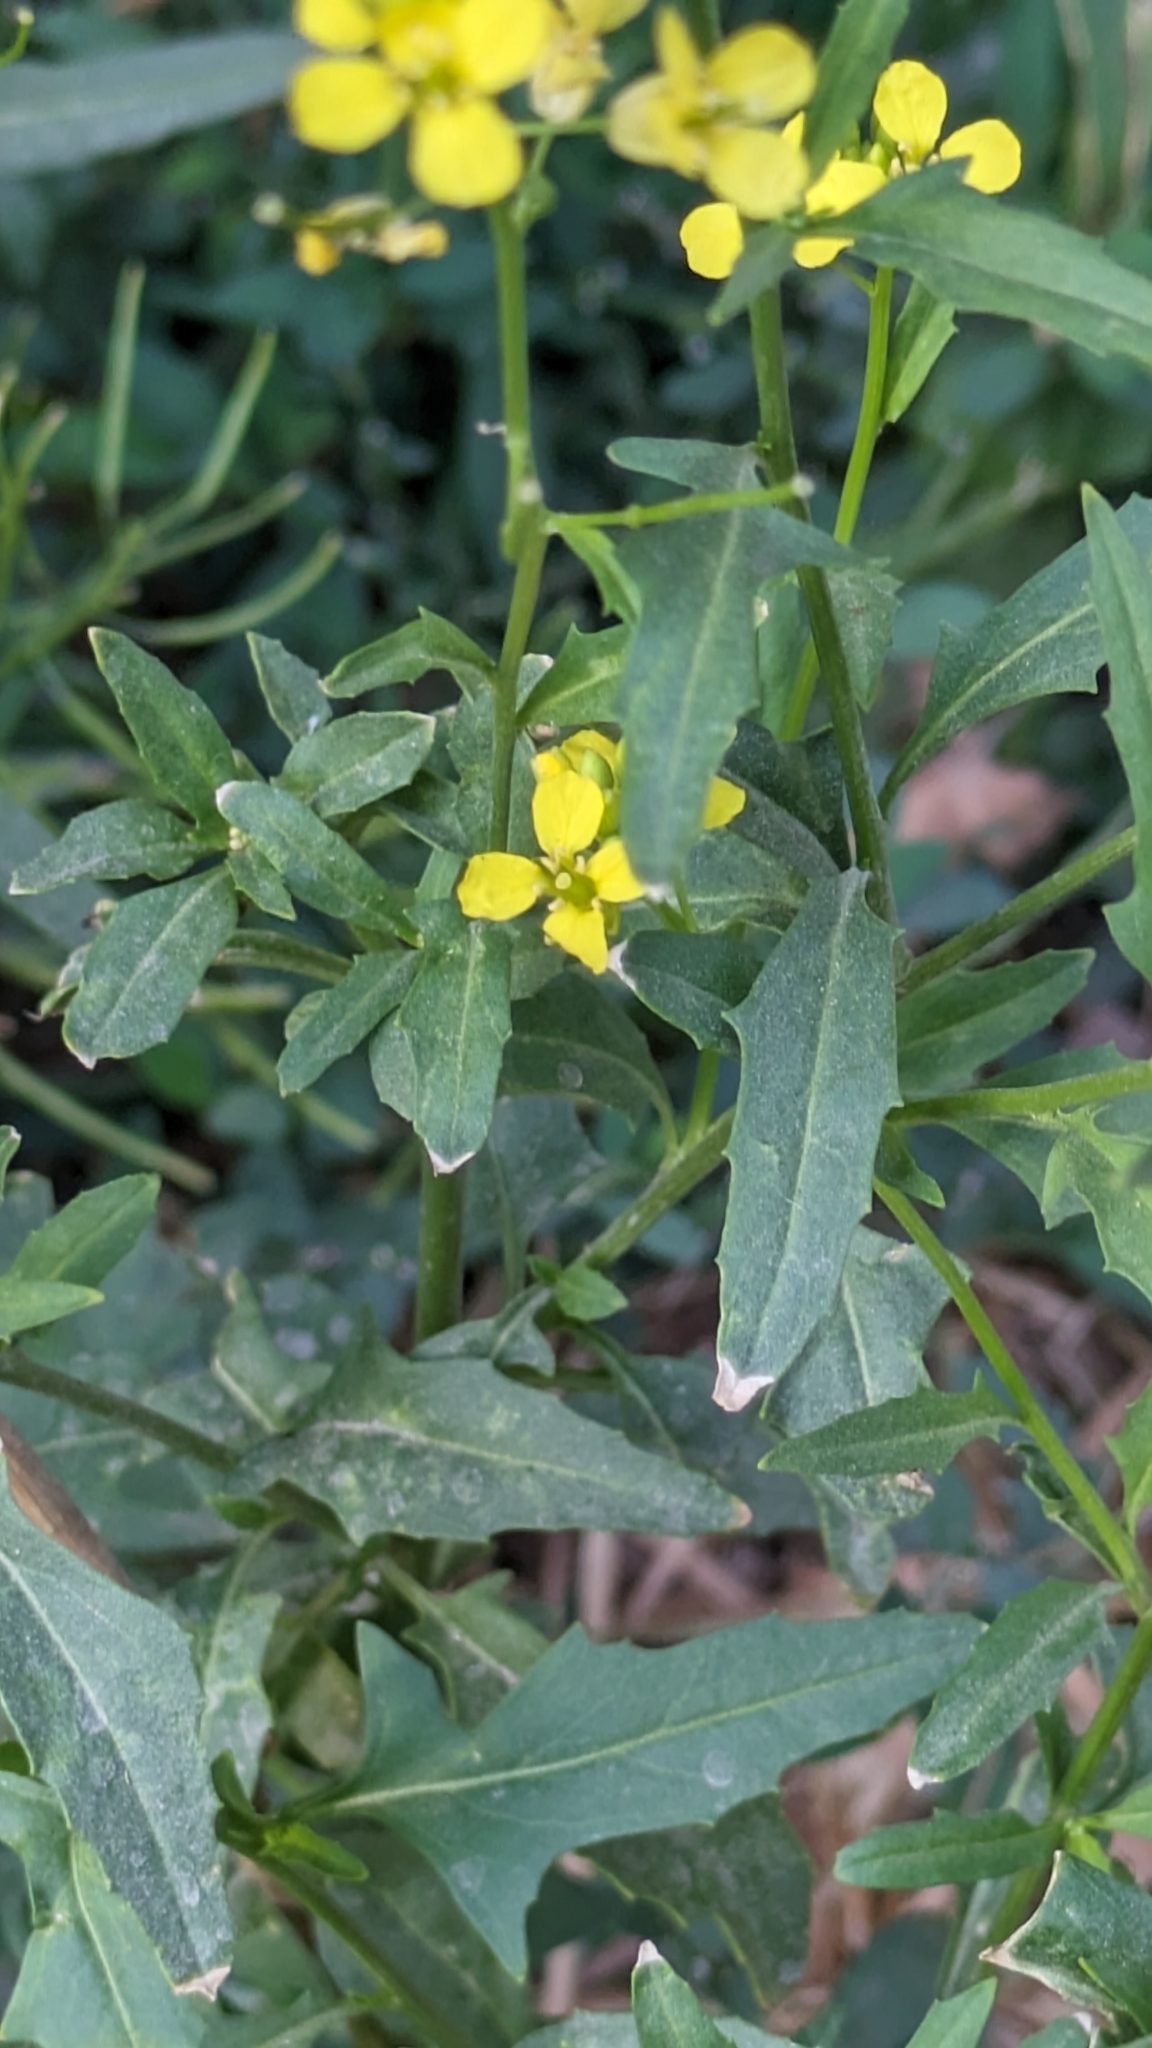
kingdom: Plantae
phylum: Tracheophyta
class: Magnoliopsida
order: Brassicales
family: Brassicaceae
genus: Sisymbrium
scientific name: Sisymbrium loeselii
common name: False london-rocket
